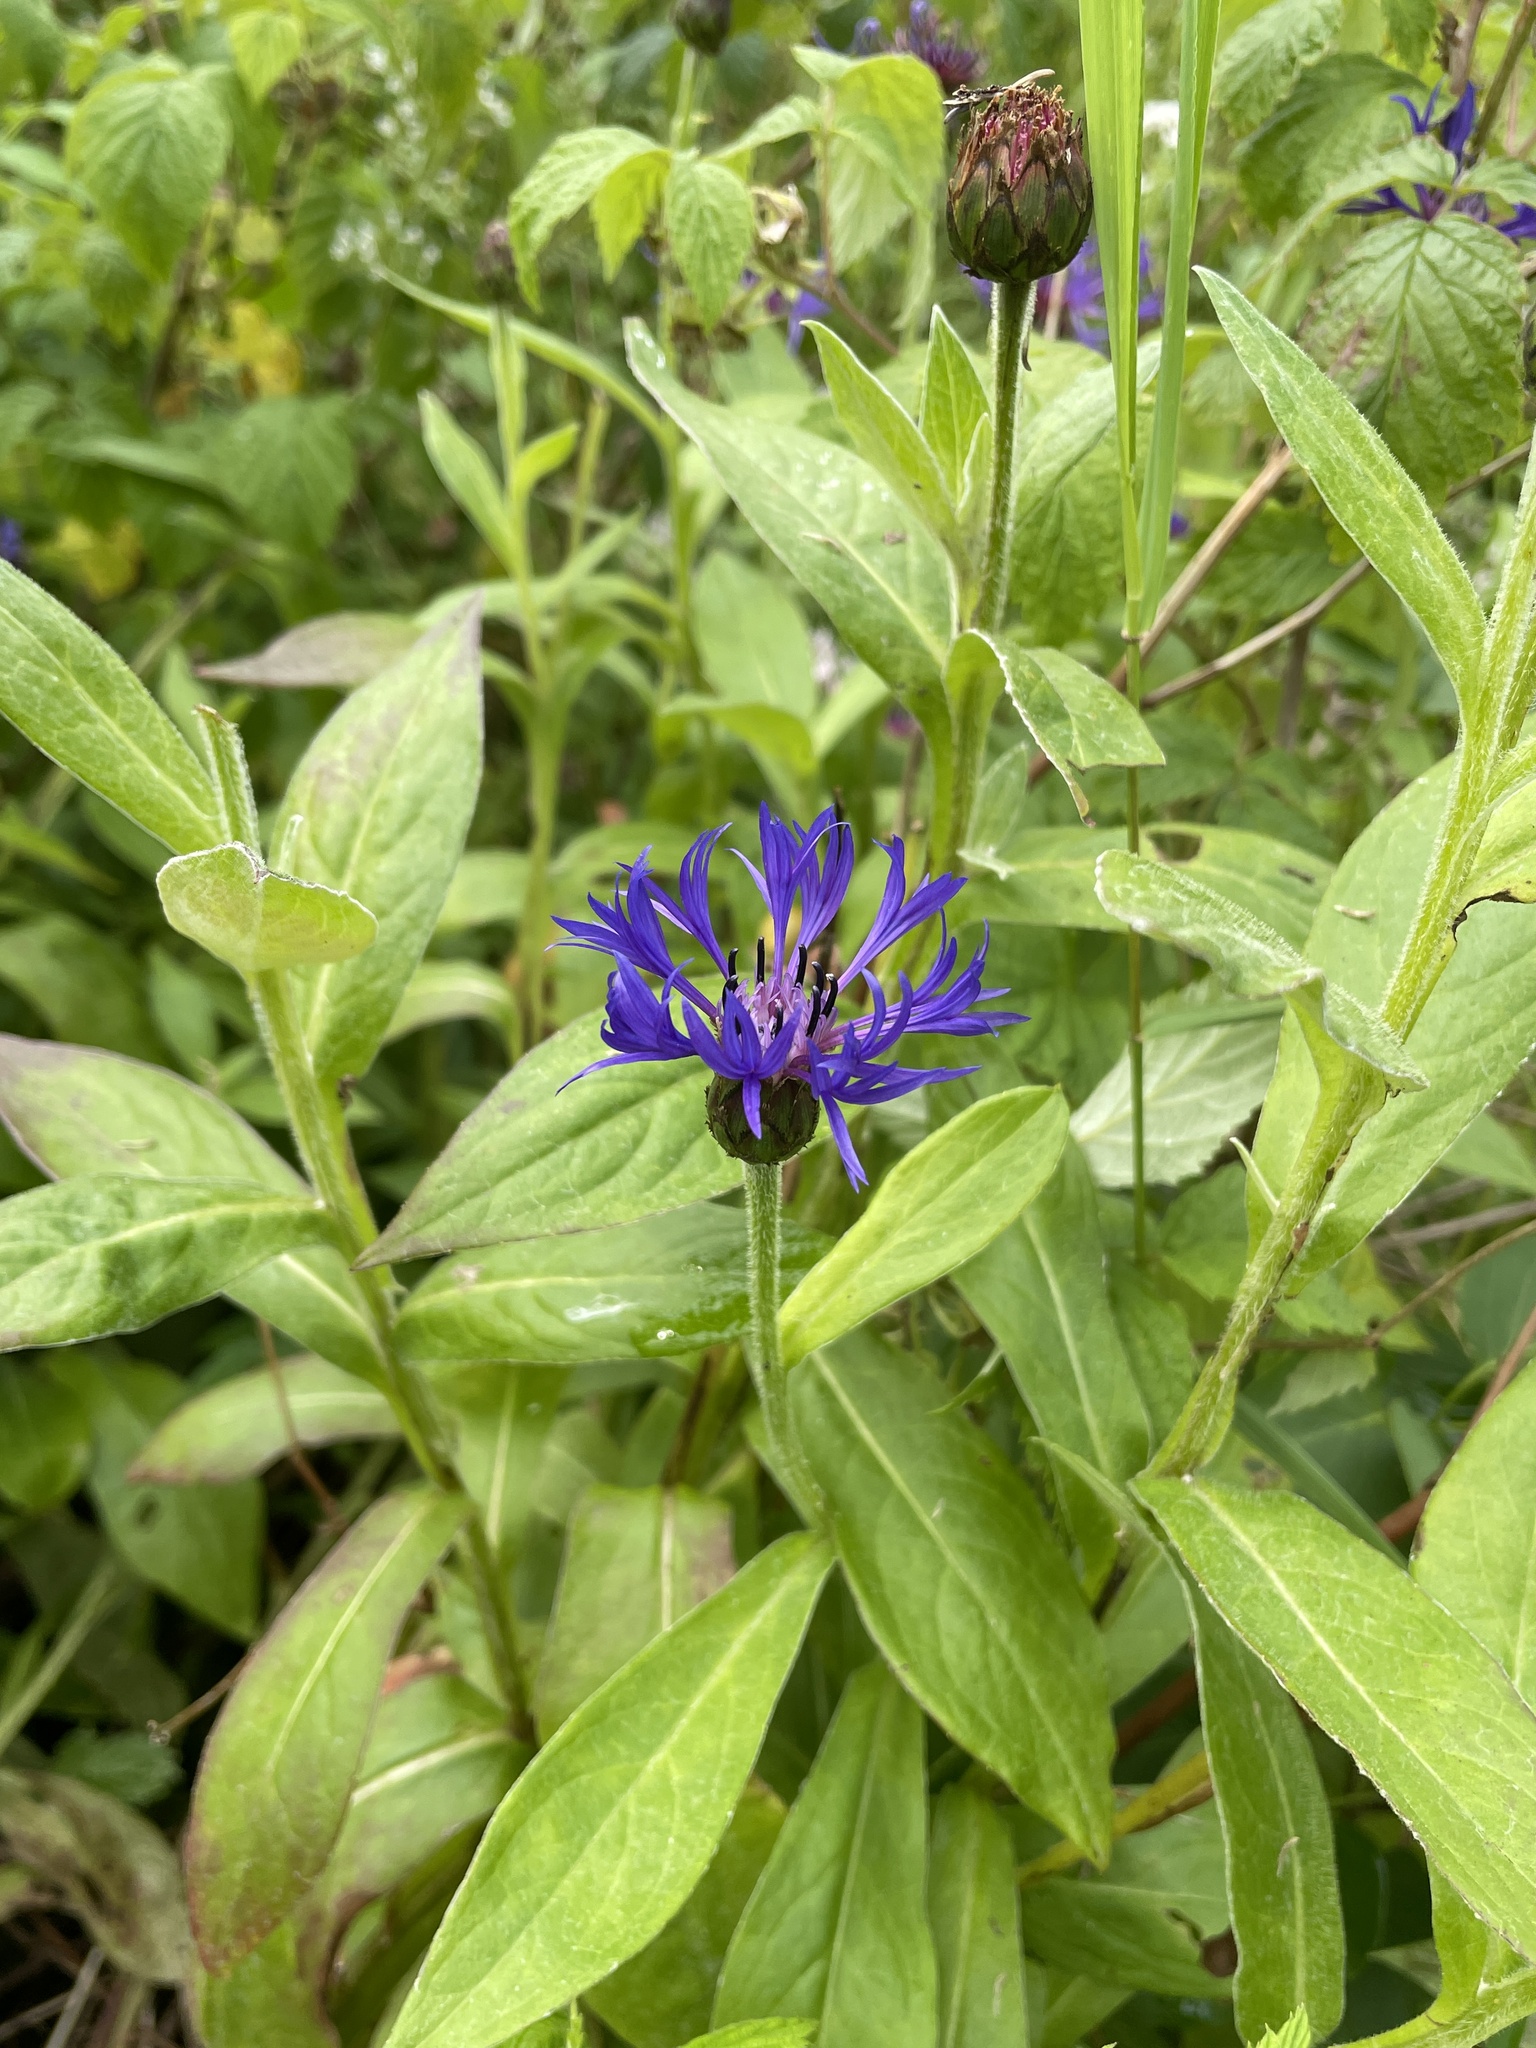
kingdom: Plantae
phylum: Tracheophyta
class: Magnoliopsida
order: Asterales
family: Asteraceae
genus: Centaurea
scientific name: Centaurea montana
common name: Perennial cornflower
